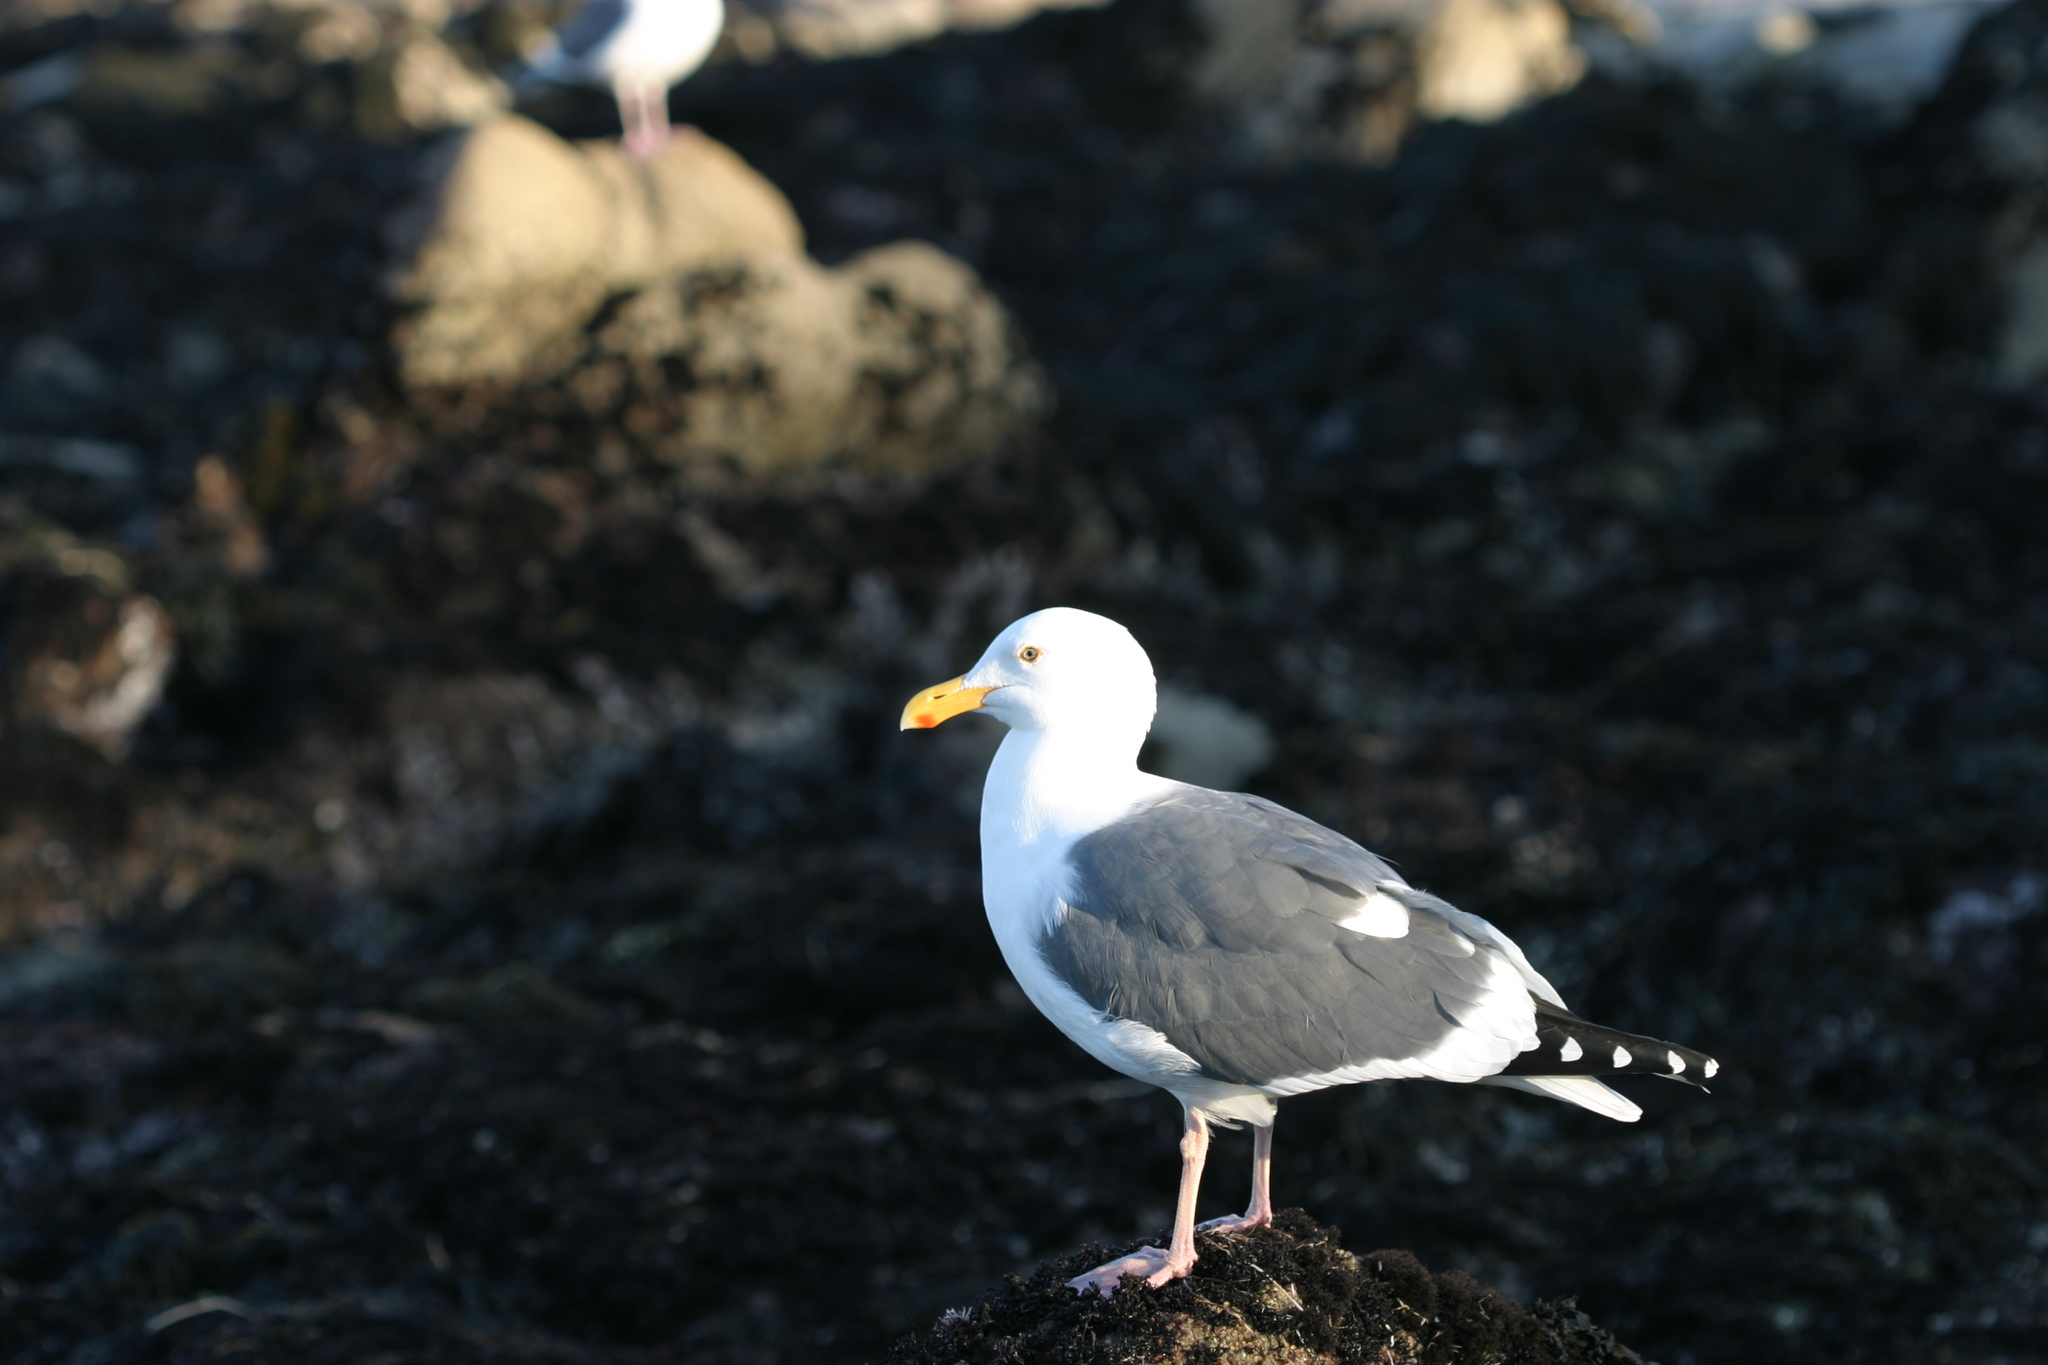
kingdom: Animalia
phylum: Chordata
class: Aves
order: Charadriiformes
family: Laridae
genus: Larus
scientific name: Larus occidentalis
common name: Western gull
